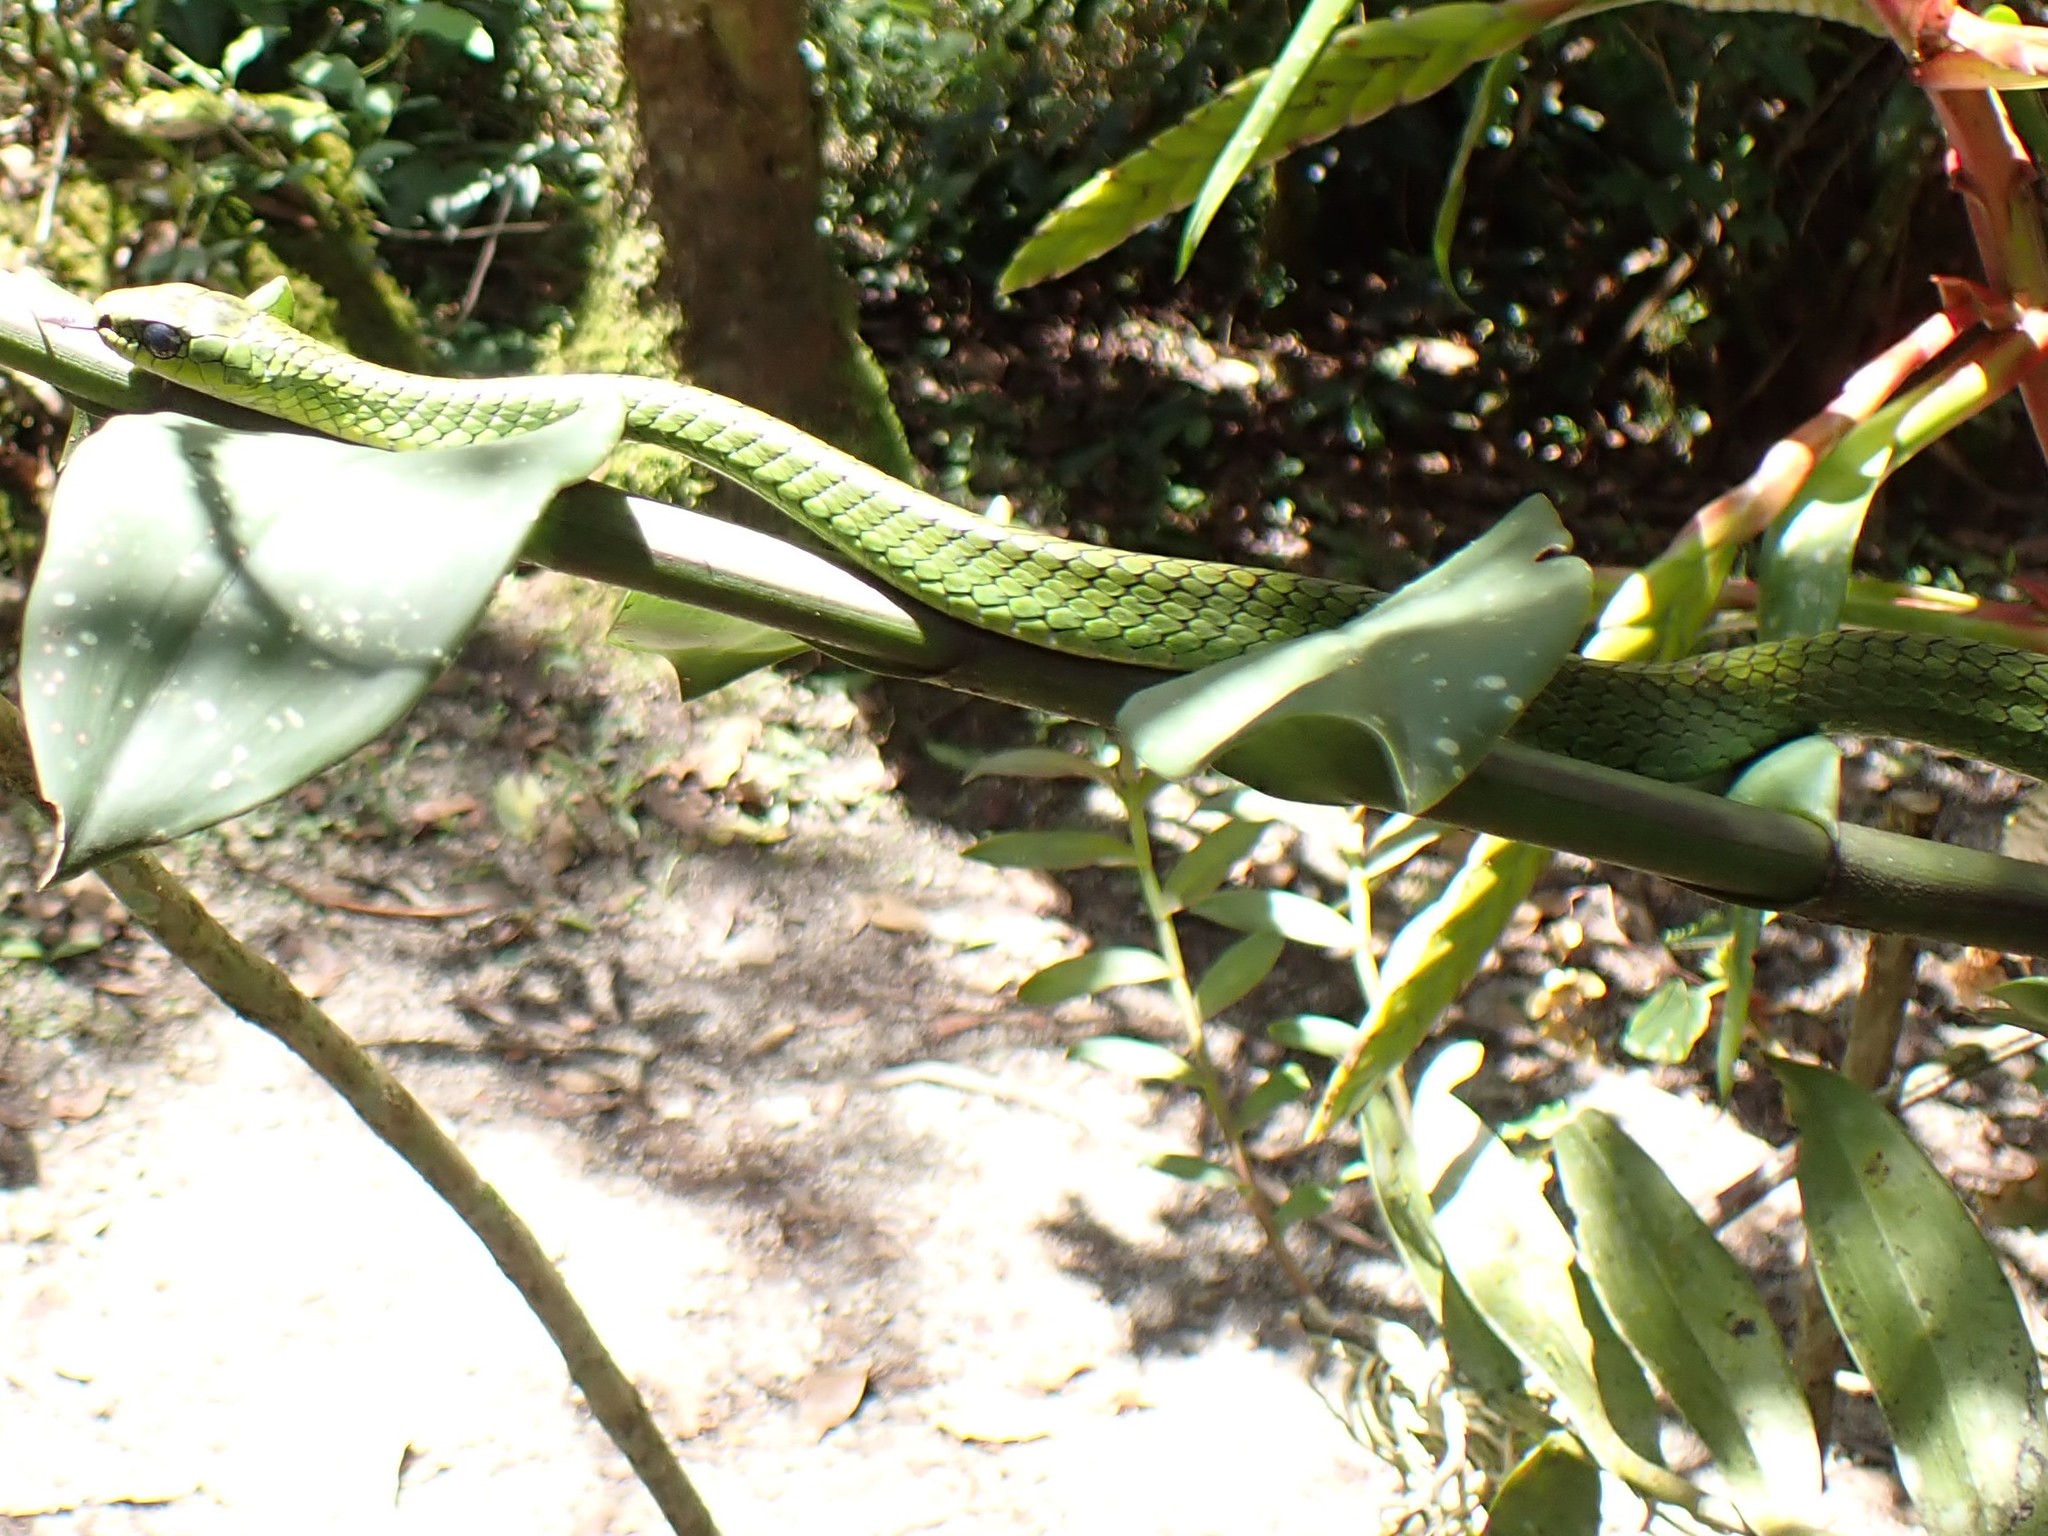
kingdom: Animalia
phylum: Chordata
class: Squamata
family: Colubridae
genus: Chironius
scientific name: Chironius monticola
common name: Mountain sipo
